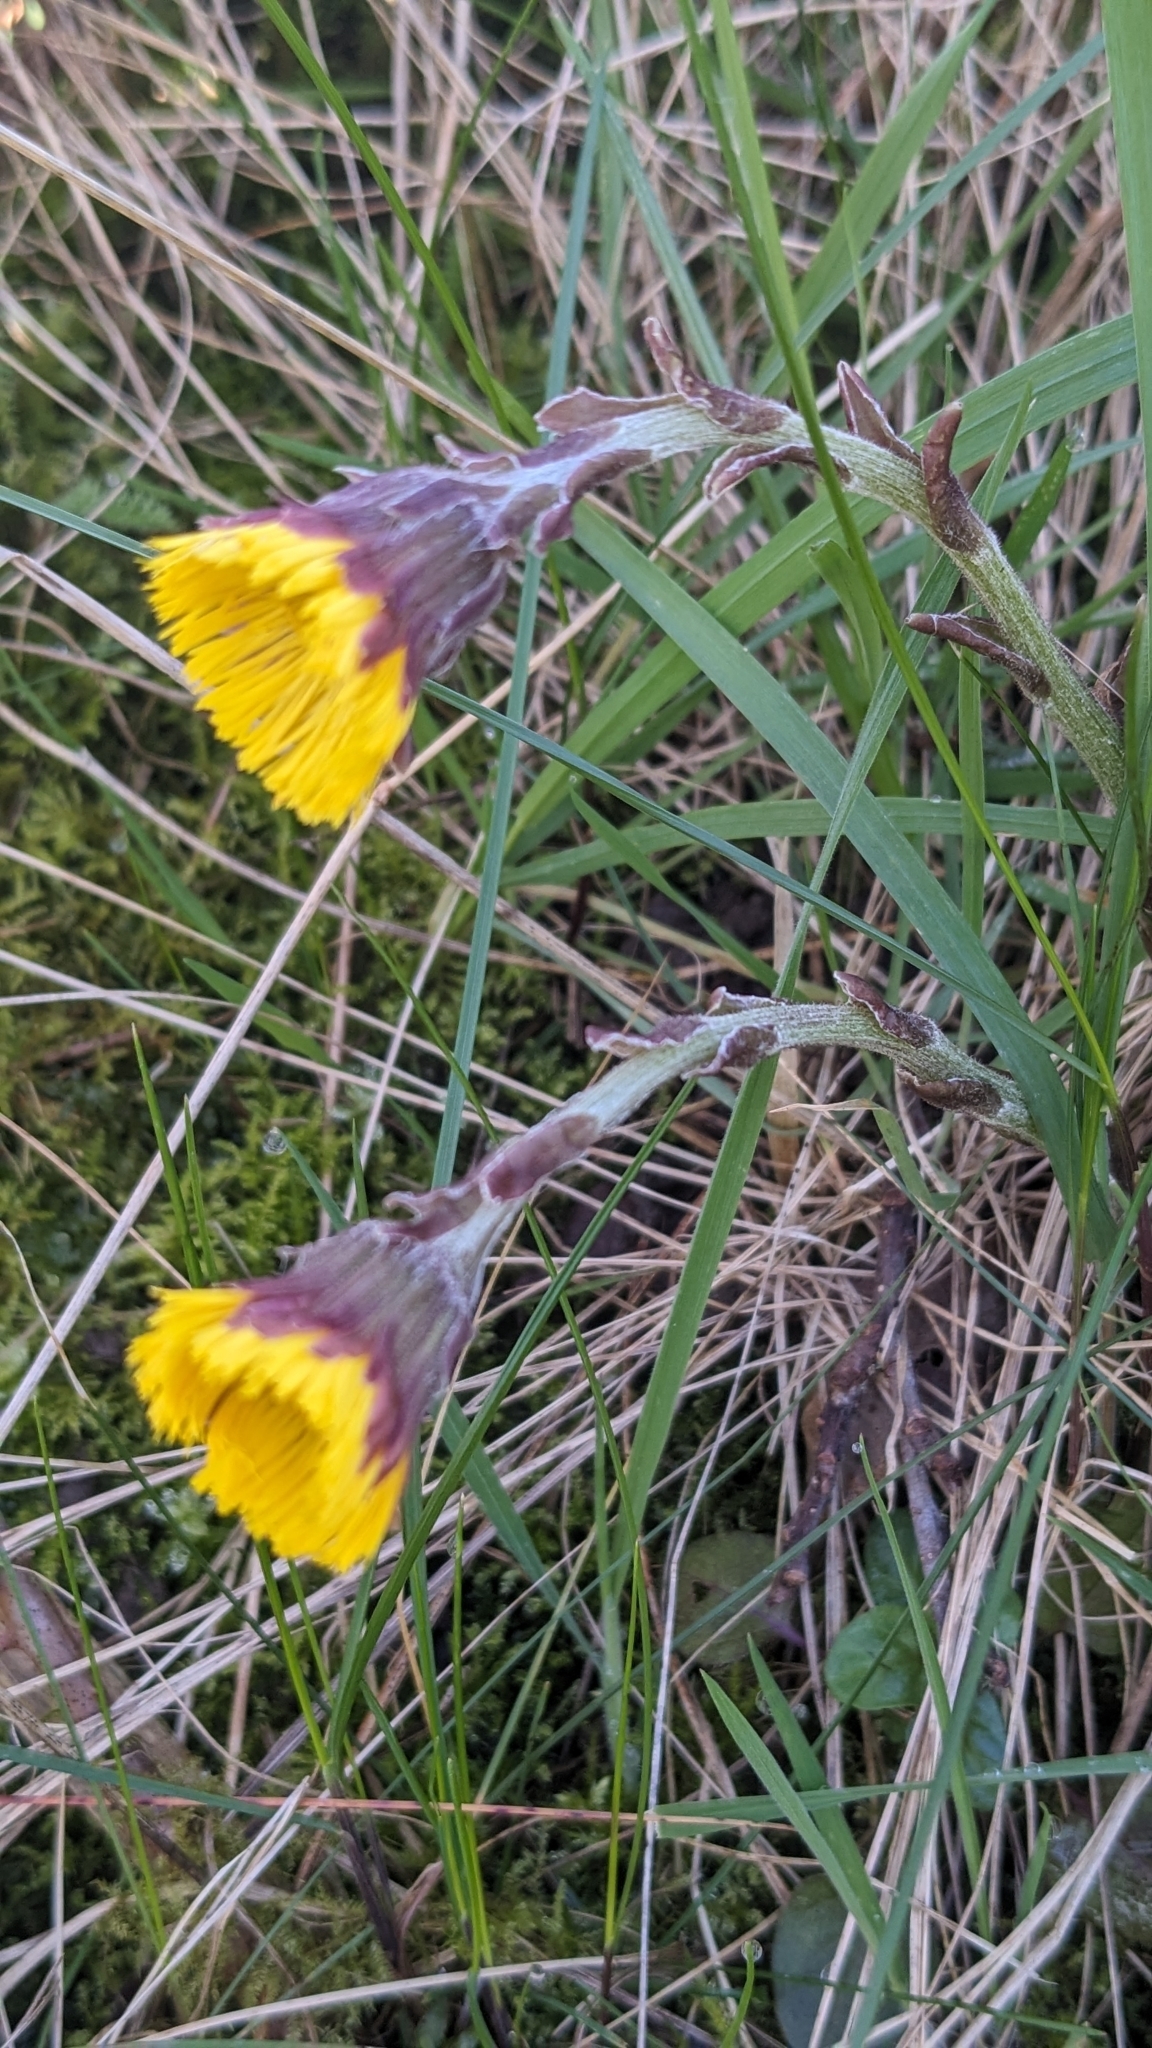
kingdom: Plantae
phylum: Tracheophyta
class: Magnoliopsida
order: Asterales
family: Asteraceae
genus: Tussilago
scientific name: Tussilago farfara
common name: Coltsfoot
